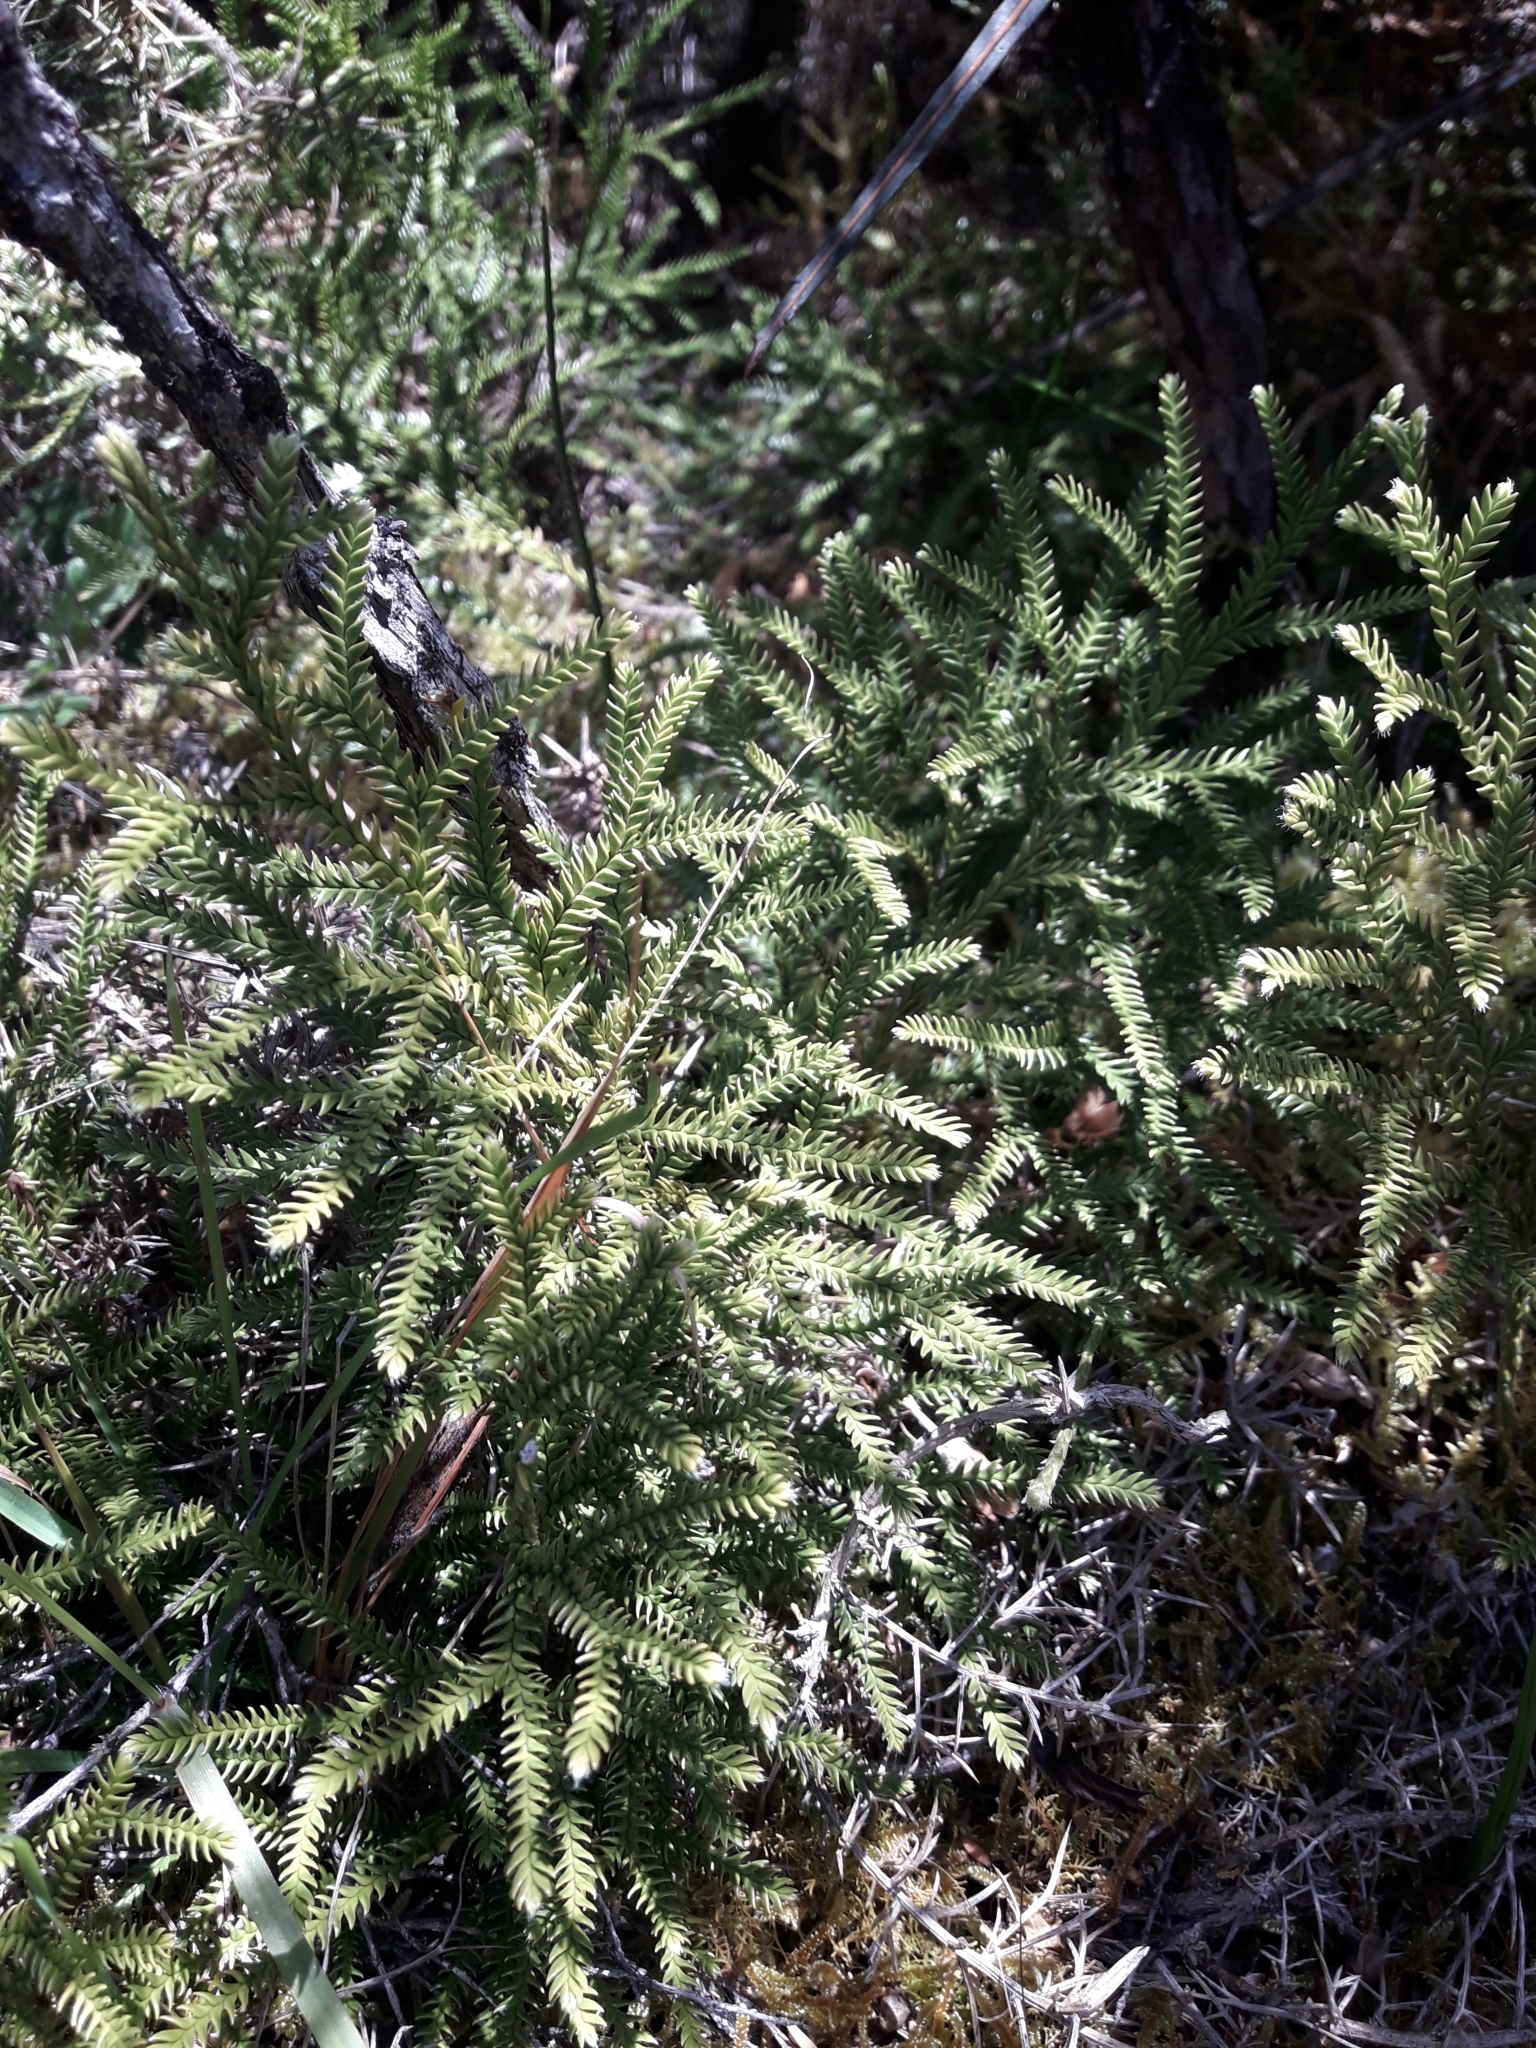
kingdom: Plantae
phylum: Tracheophyta
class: Lycopodiopsida
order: Lycopodiales
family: Lycopodiaceae
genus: Diphasium
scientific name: Diphasium scariosum
